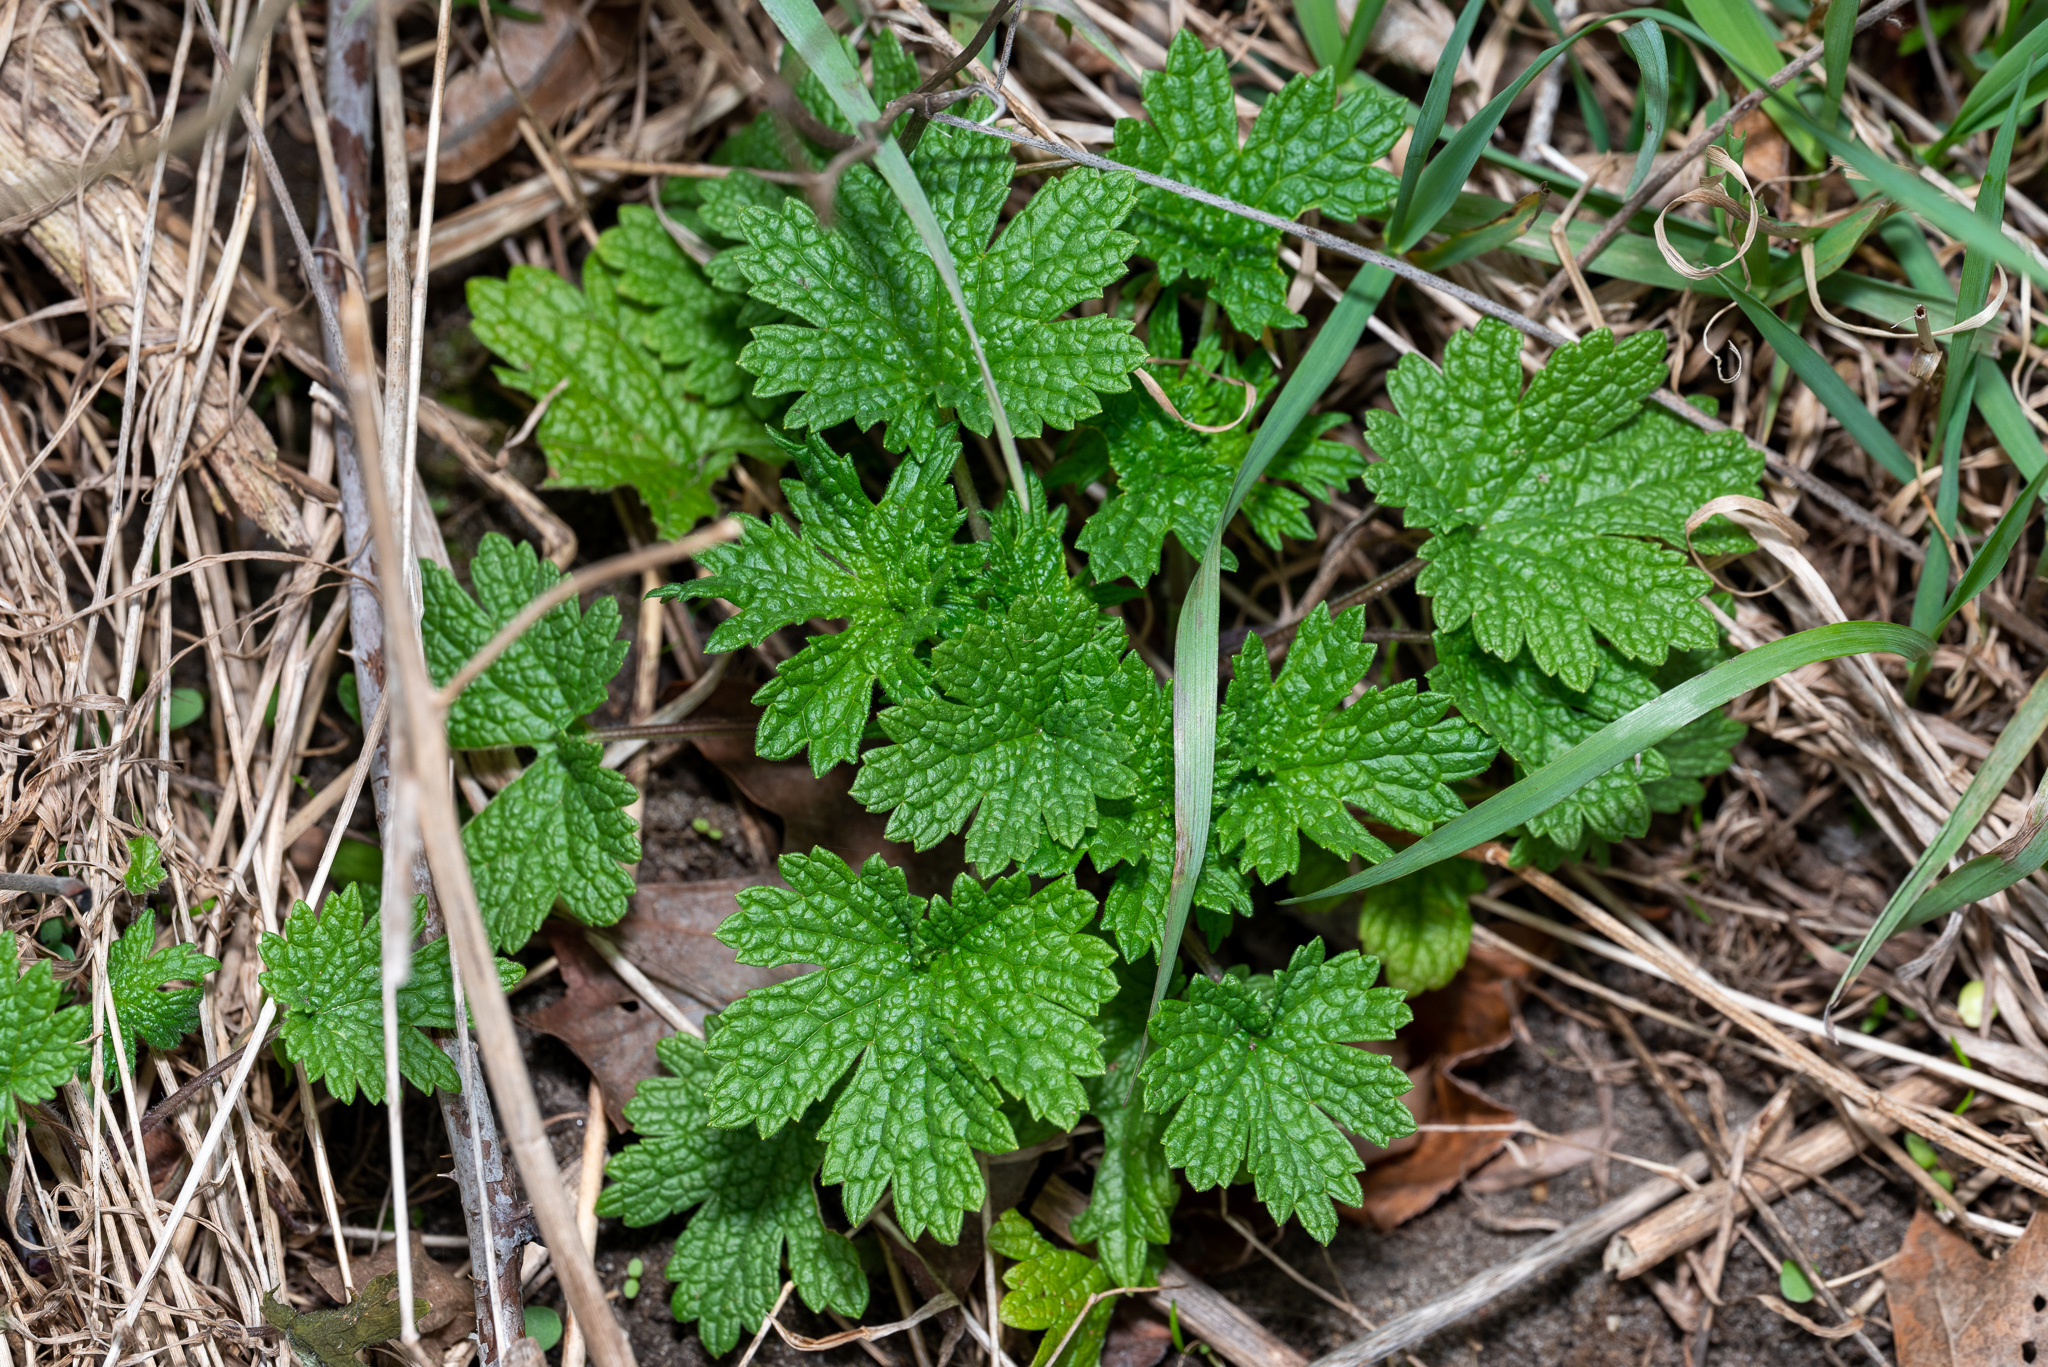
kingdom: Plantae
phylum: Tracheophyta
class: Magnoliopsida
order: Lamiales
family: Lamiaceae
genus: Leonurus
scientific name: Leonurus cardiaca
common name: Motherwort
